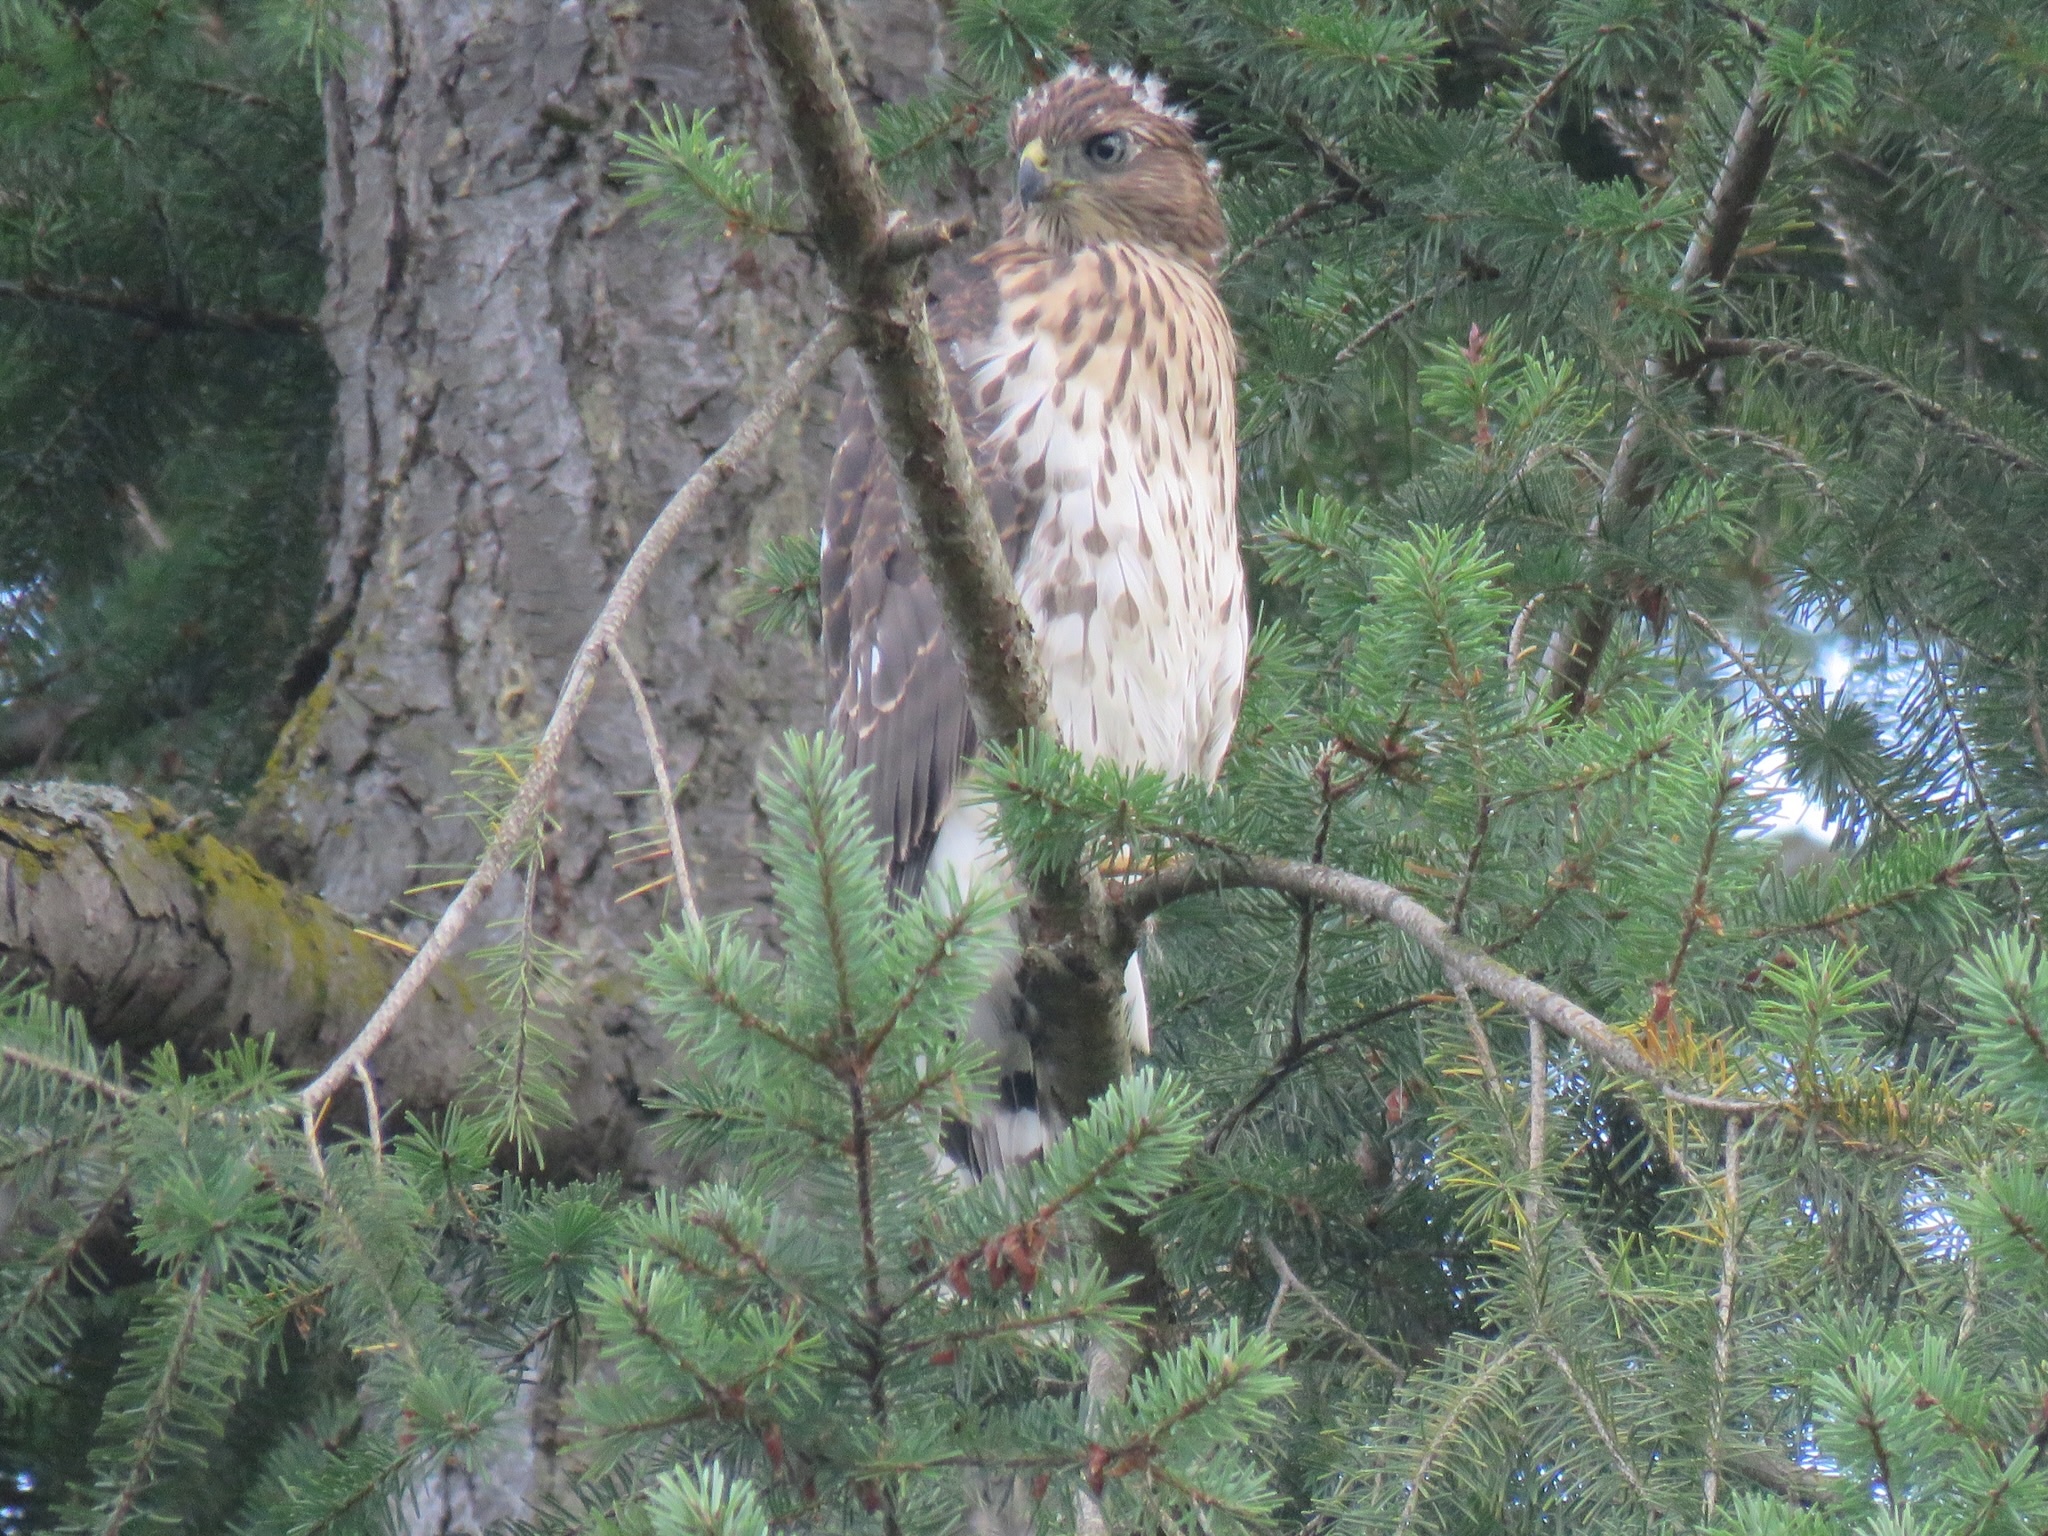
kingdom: Animalia
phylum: Chordata
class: Aves
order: Accipitriformes
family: Accipitridae
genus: Accipiter
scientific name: Accipiter cooperii
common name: Cooper's hawk
